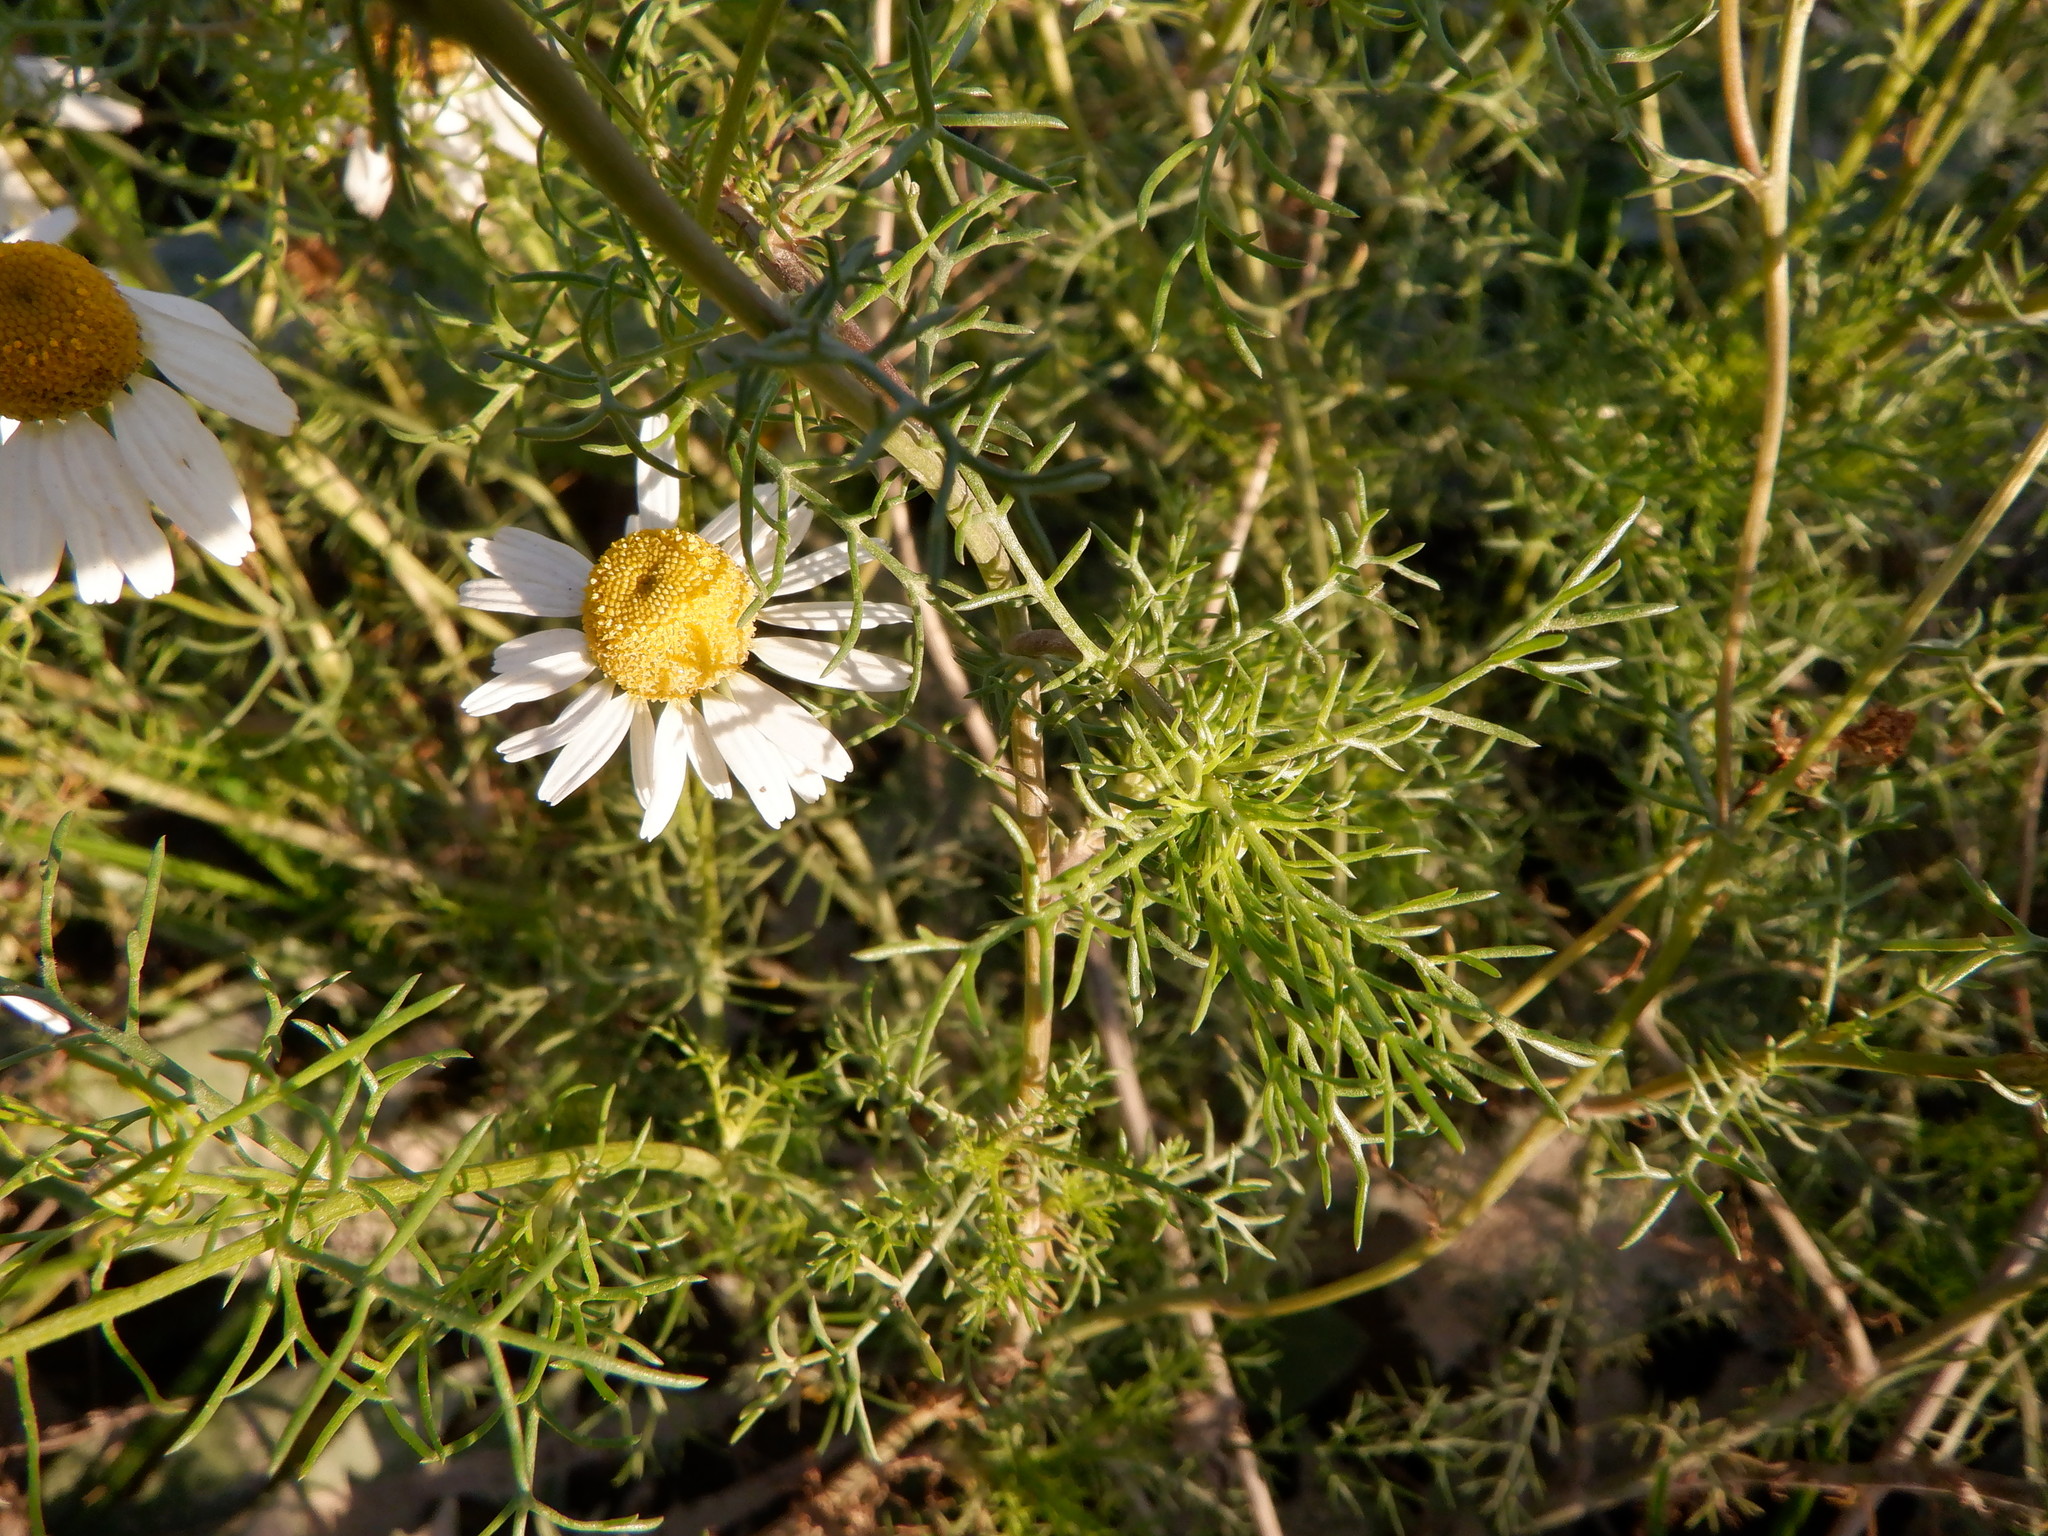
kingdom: Plantae
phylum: Tracheophyta
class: Magnoliopsida
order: Asterales
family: Asteraceae
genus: Tripleurospermum
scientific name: Tripleurospermum inodorum
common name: Scentless mayweed
